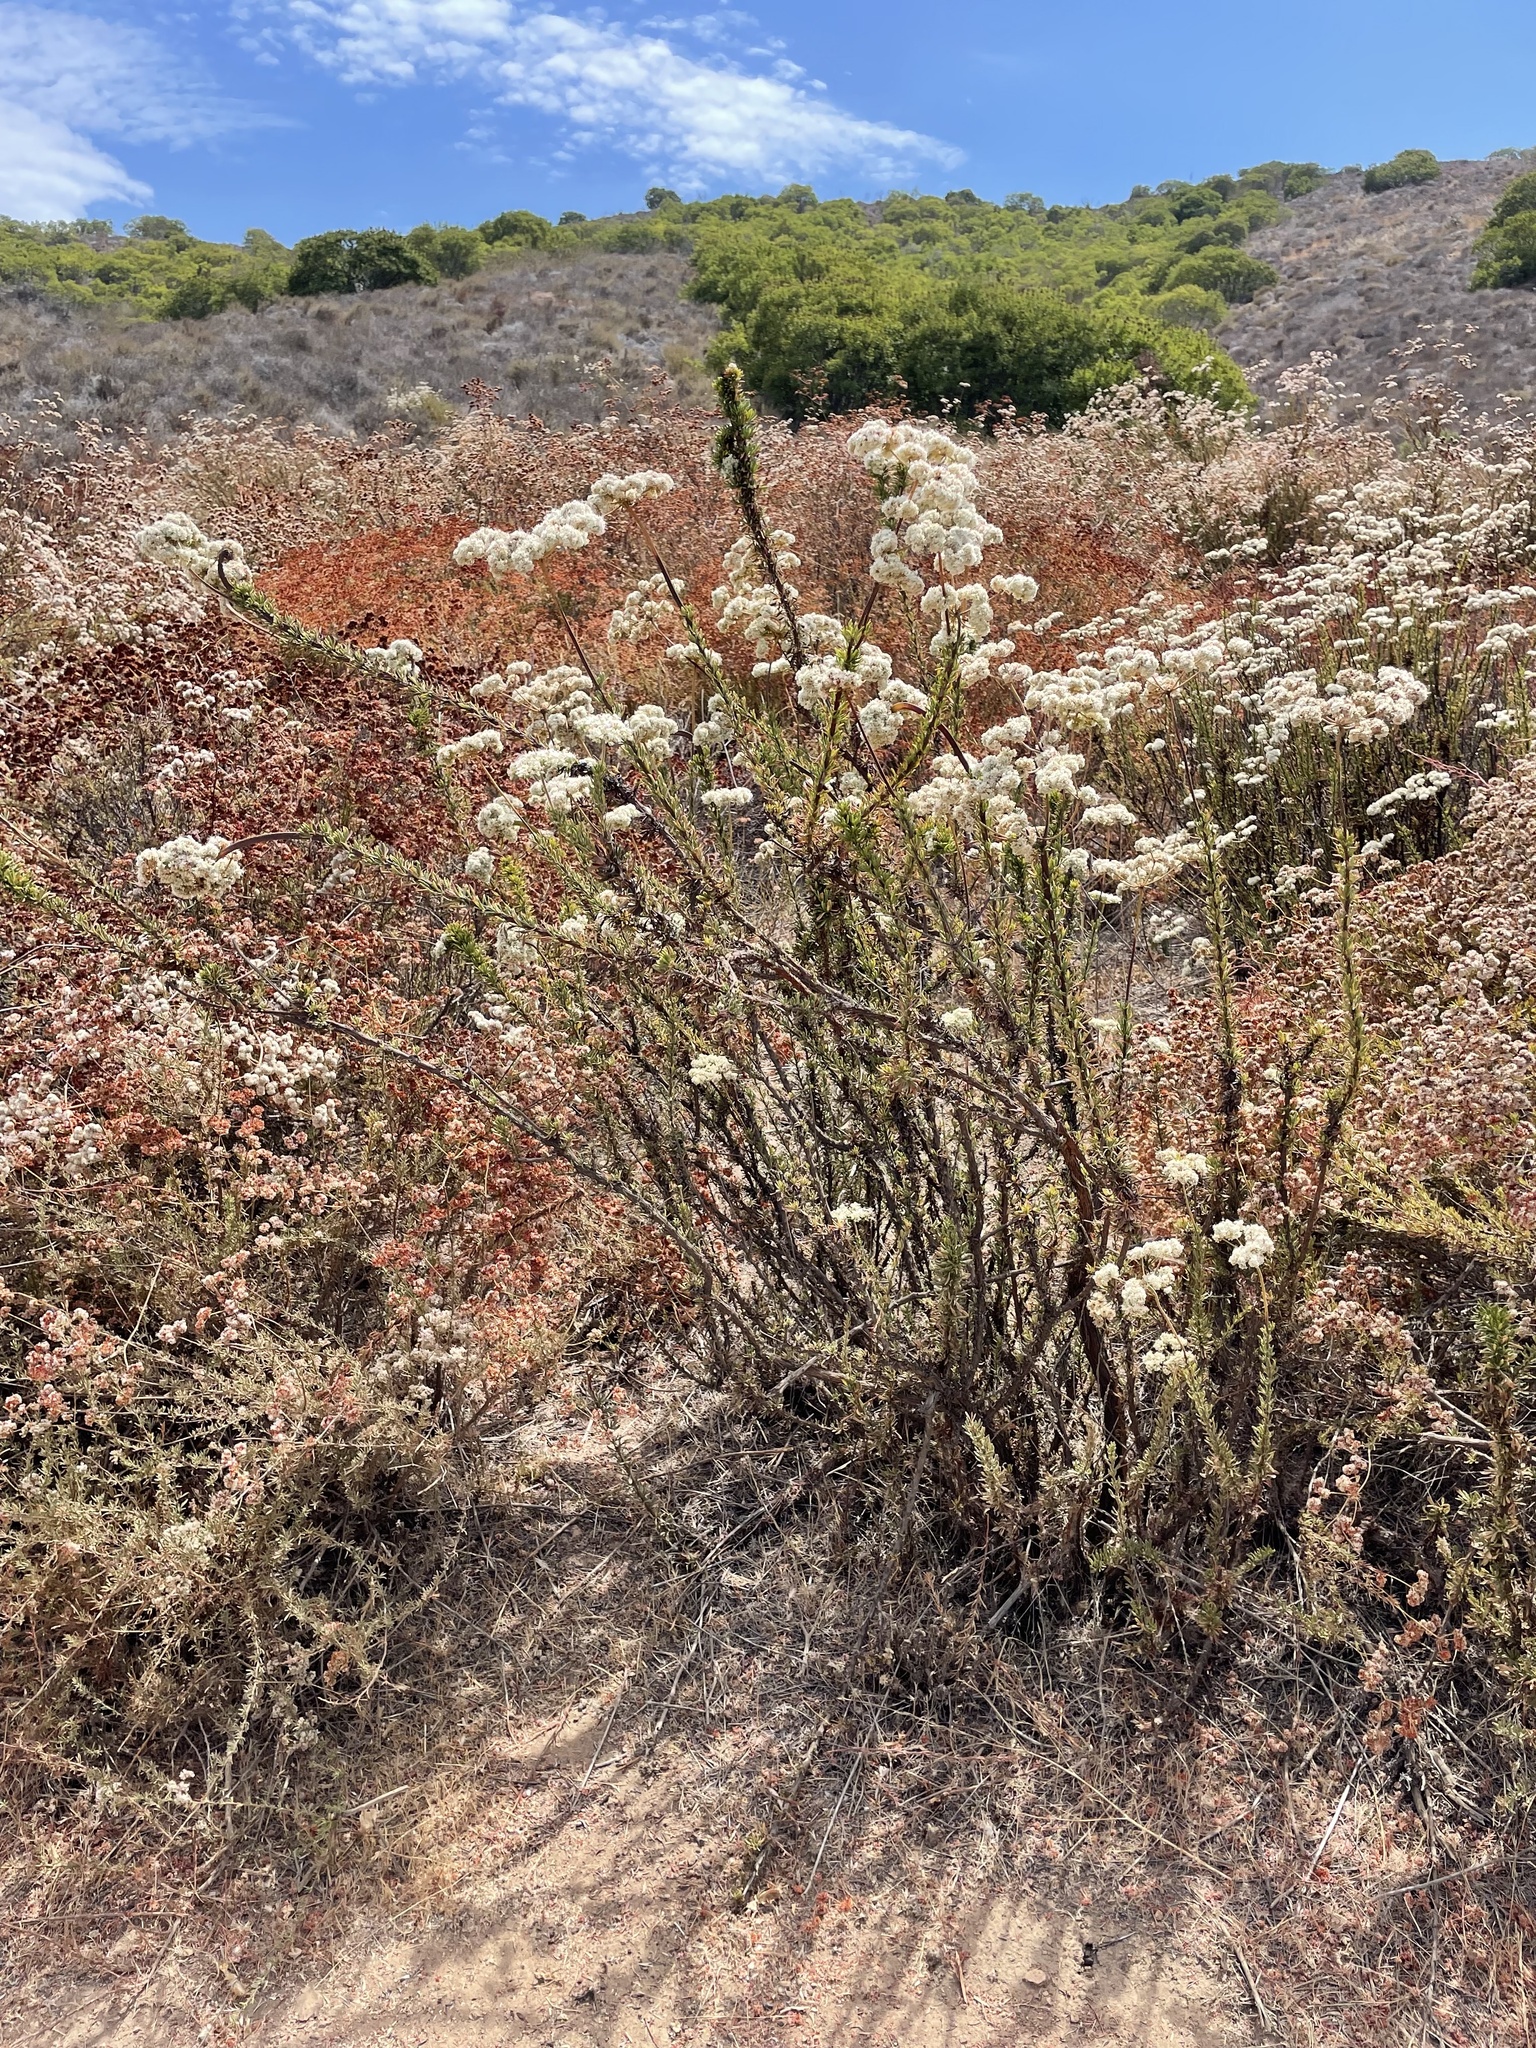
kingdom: Plantae
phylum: Tracheophyta
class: Magnoliopsida
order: Caryophyllales
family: Polygonaceae
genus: Eriogonum
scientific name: Eriogonum fasciculatum
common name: California wild buckwheat
